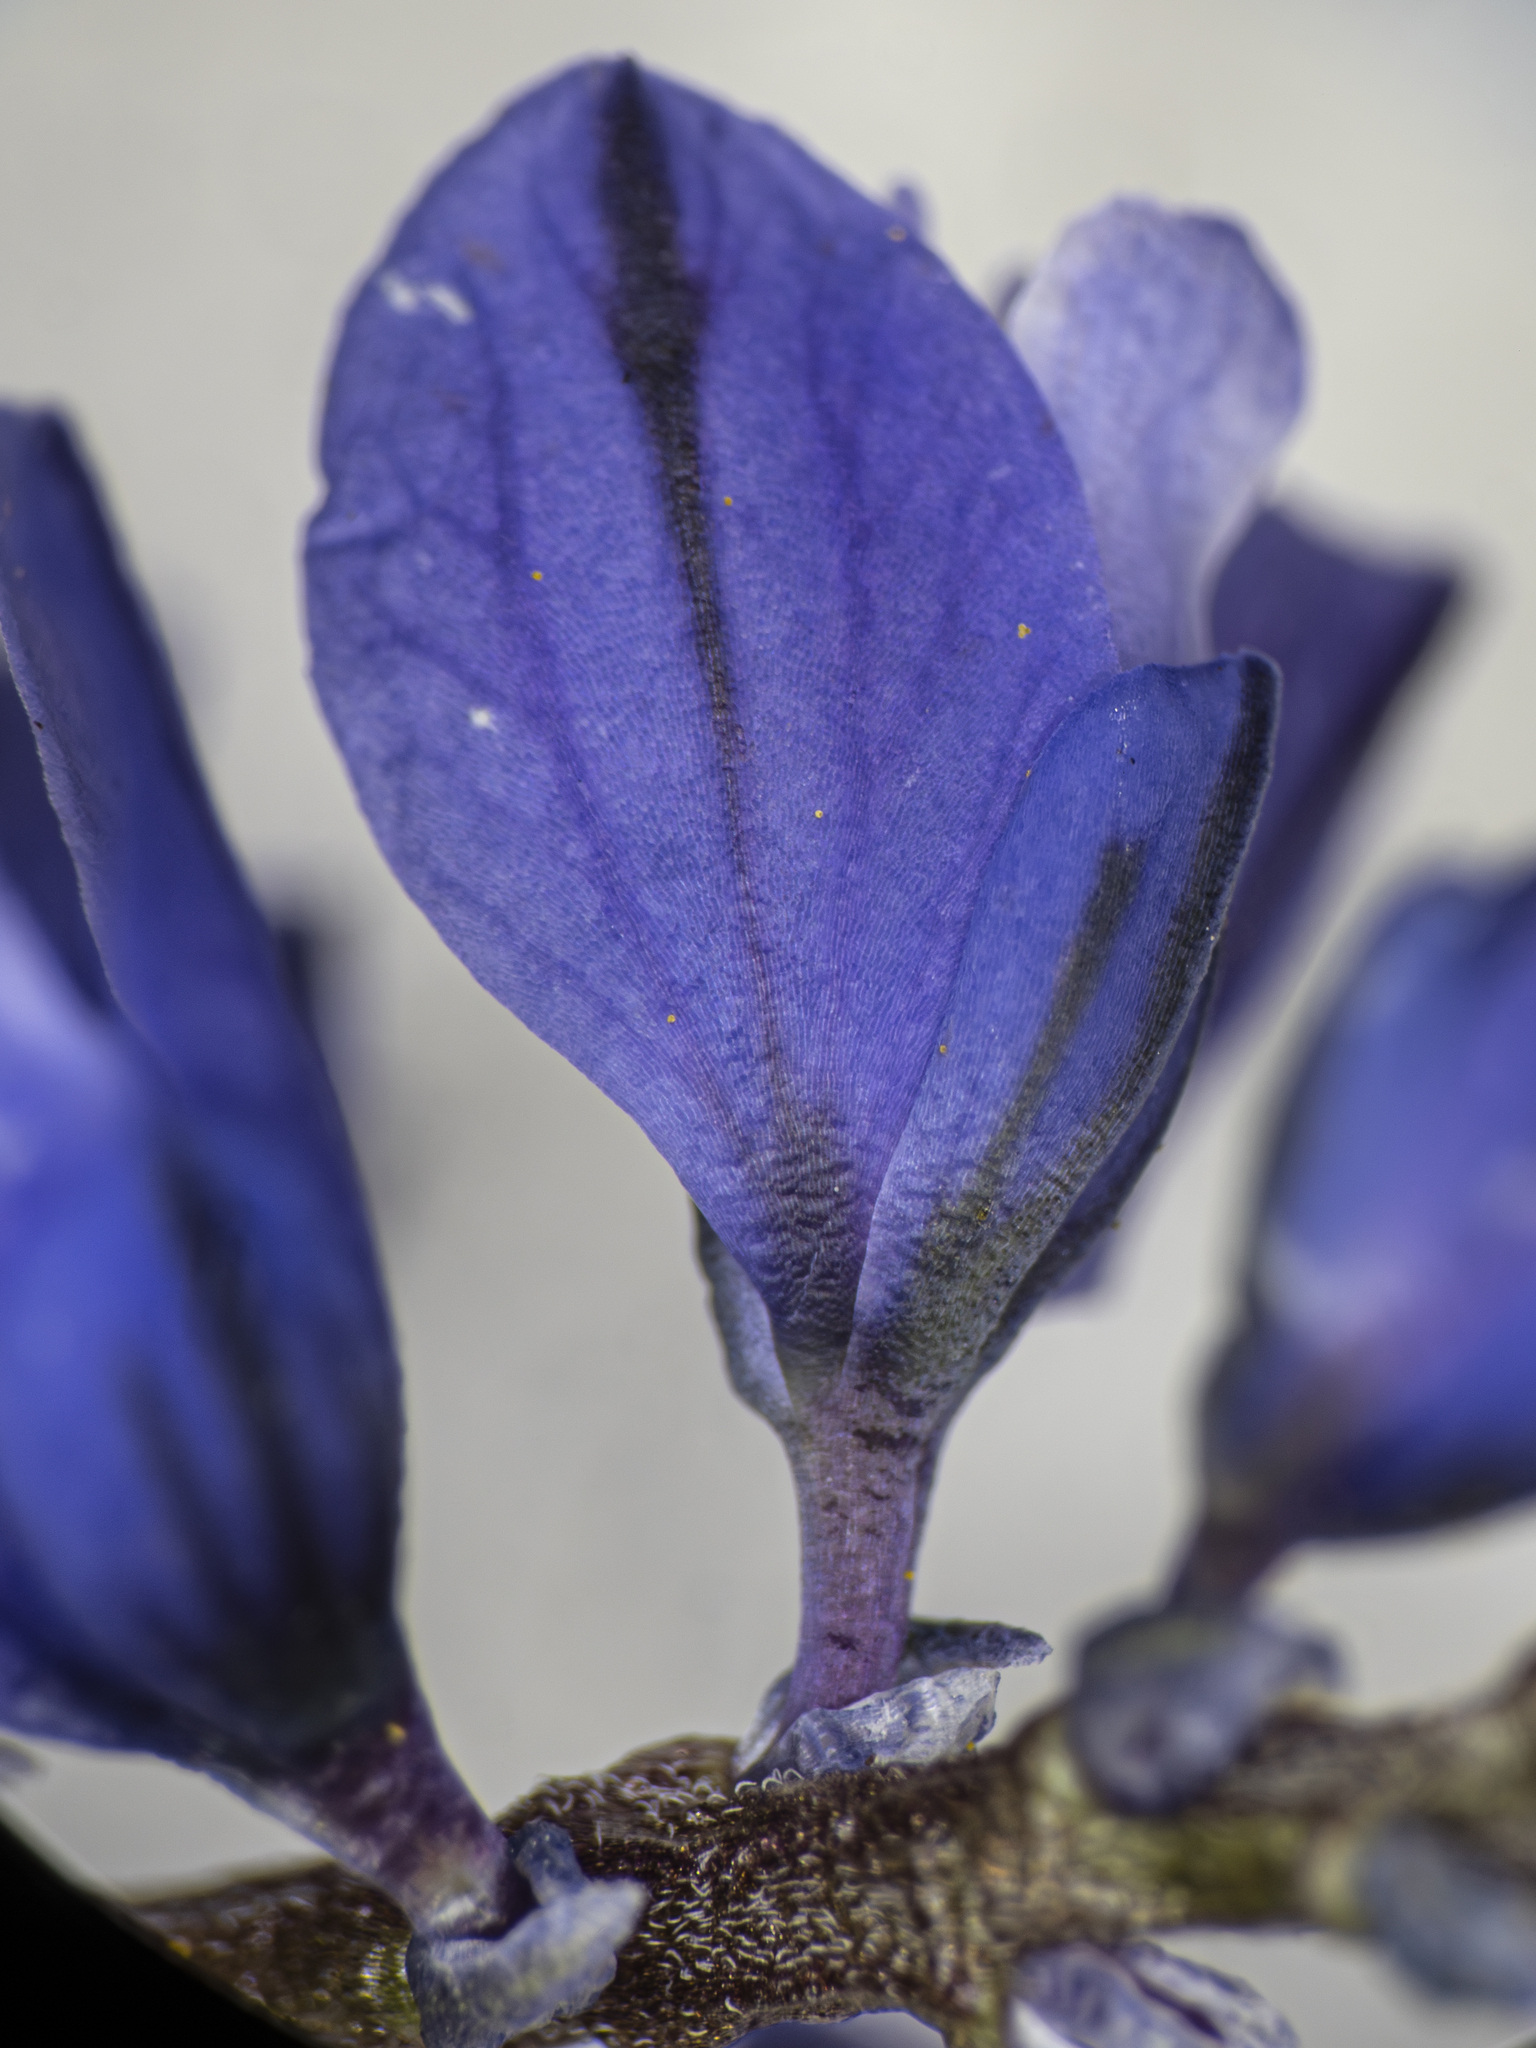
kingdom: Plantae
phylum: Tracheophyta
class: Magnoliopsida
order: Fabales
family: Polygalaceae
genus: Polygala
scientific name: Polygala amara
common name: Milkwort
